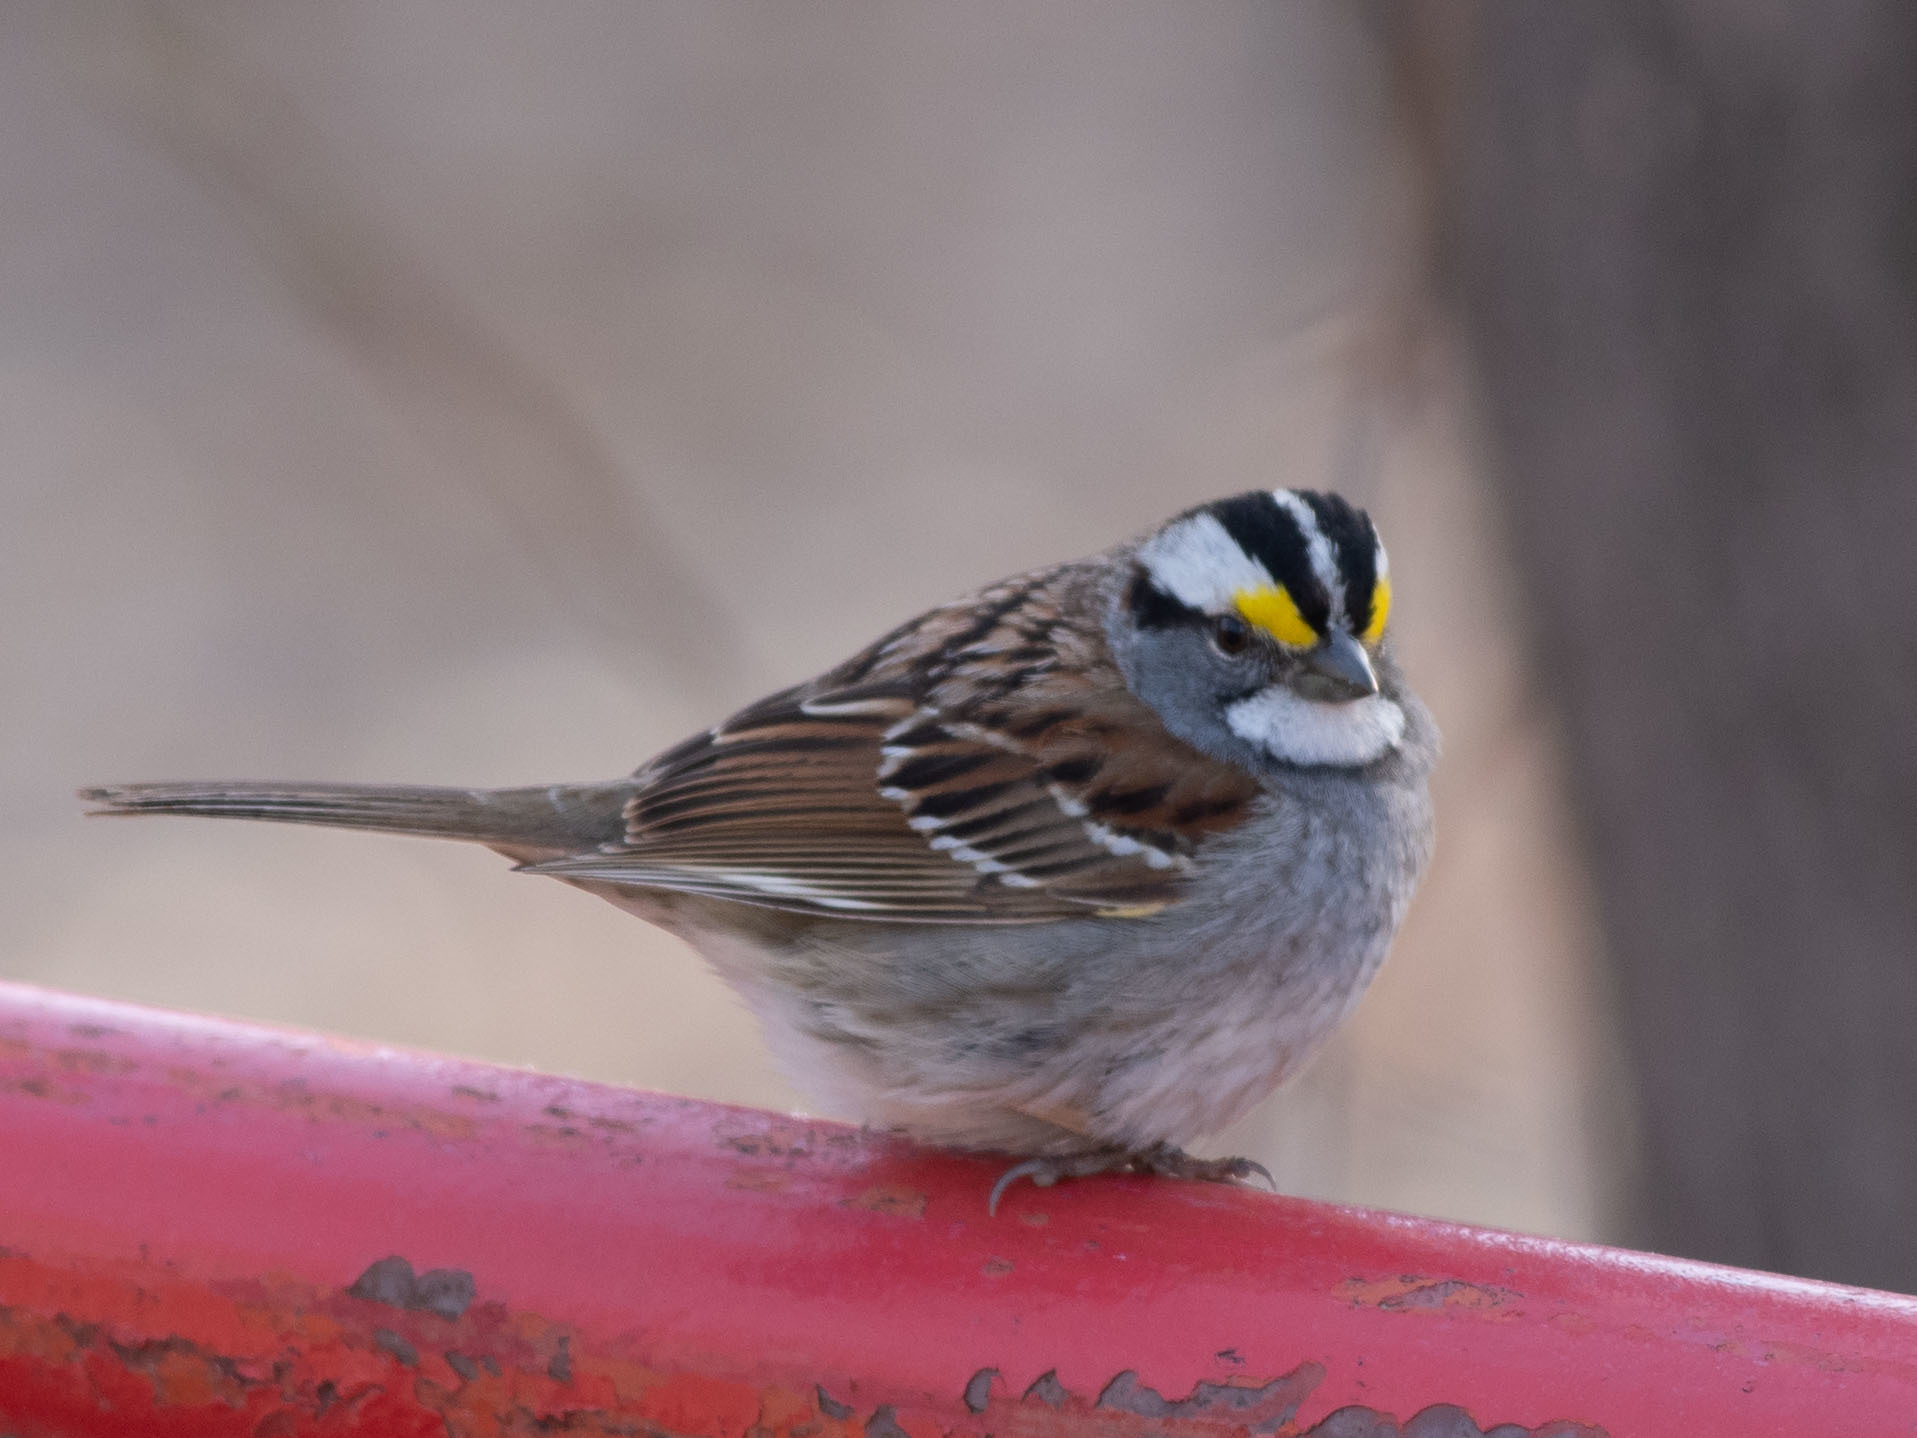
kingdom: Animalia
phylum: Chordata
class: Aves
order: Passeriformes
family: Passerellidae
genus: Zonotrichia
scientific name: Zonotrichia albicollis
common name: White-throated sparrow
